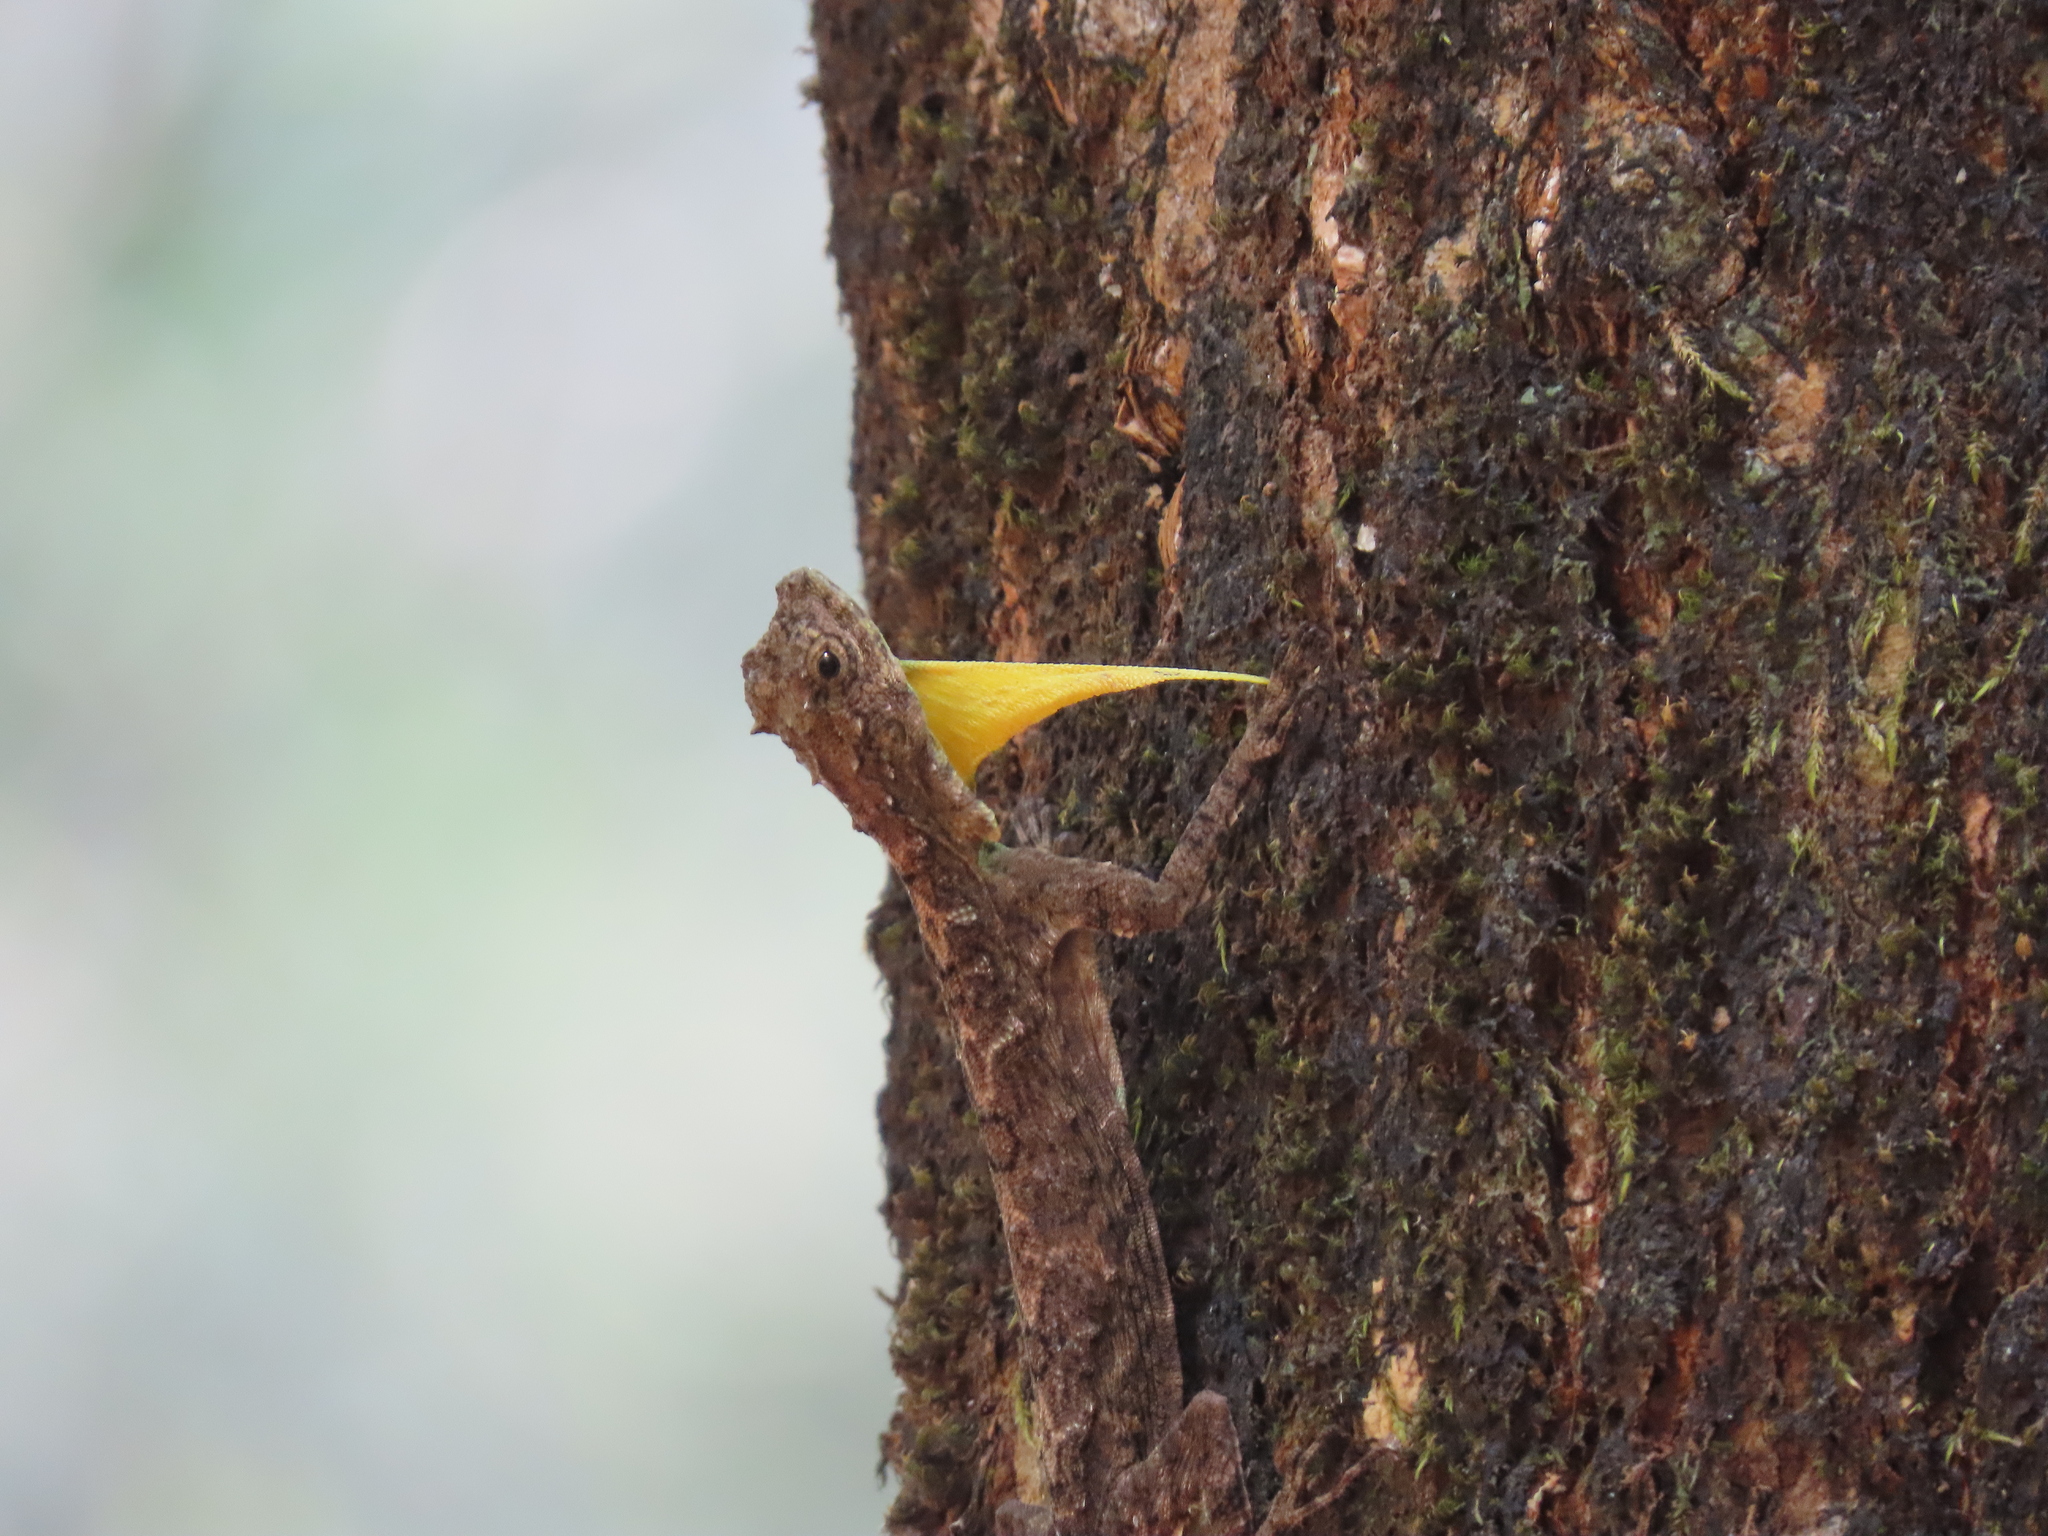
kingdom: Animalia
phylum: Chordata
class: Squamata
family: Agamidae
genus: Draco
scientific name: Draco dussumieri
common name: Southern flying lizard
